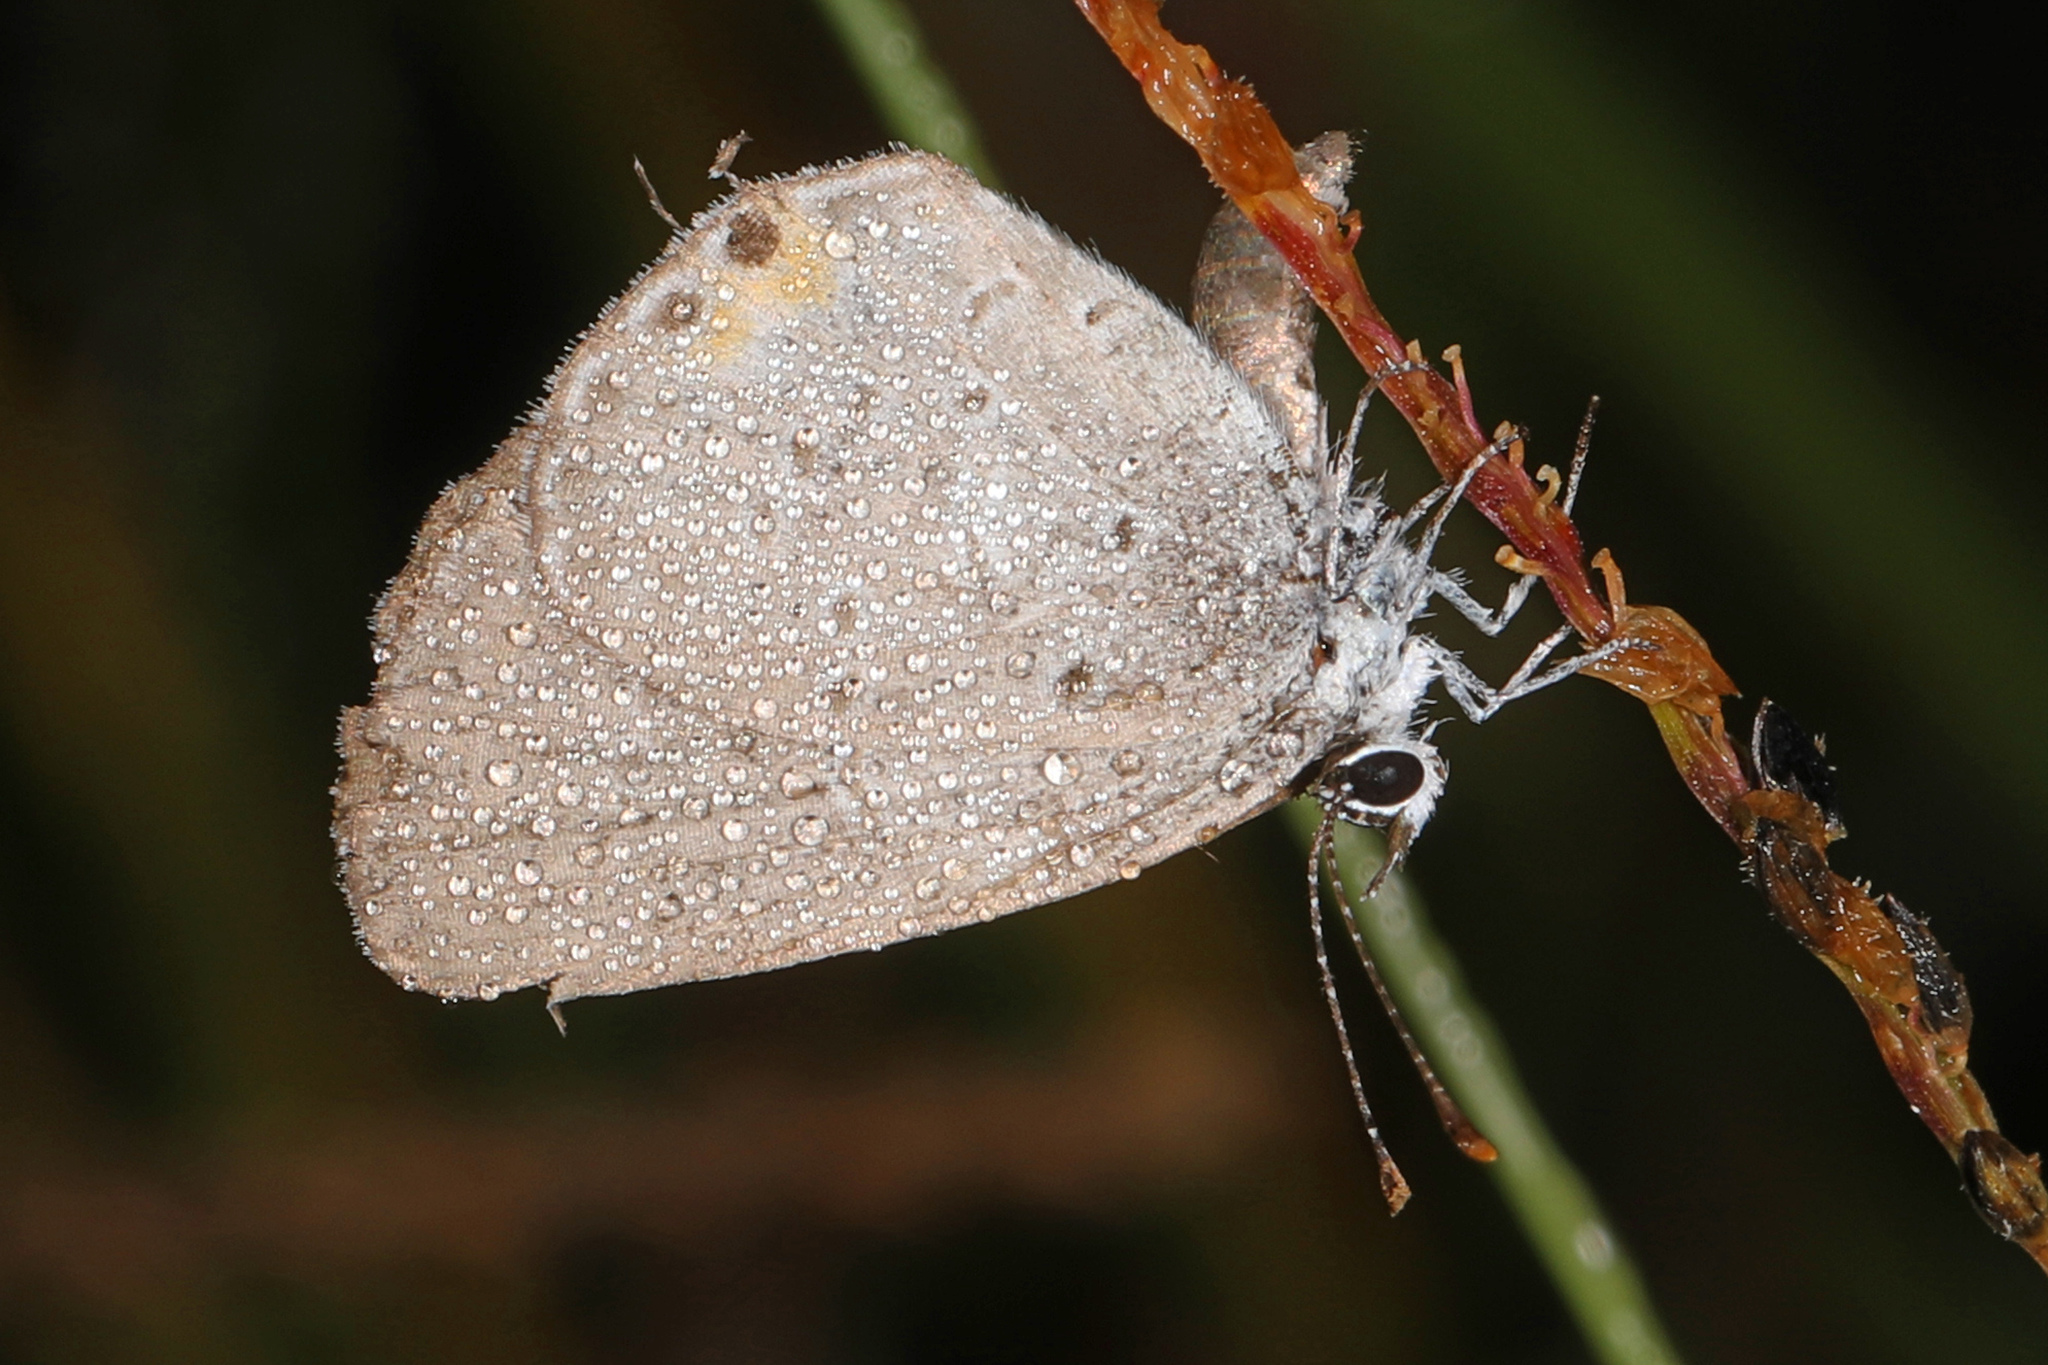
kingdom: Animalia
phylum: Arthropoda
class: Insecta
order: Lepidoptera
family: Lycaenidae
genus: Elkalyce
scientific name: Elkalyce comyntas
